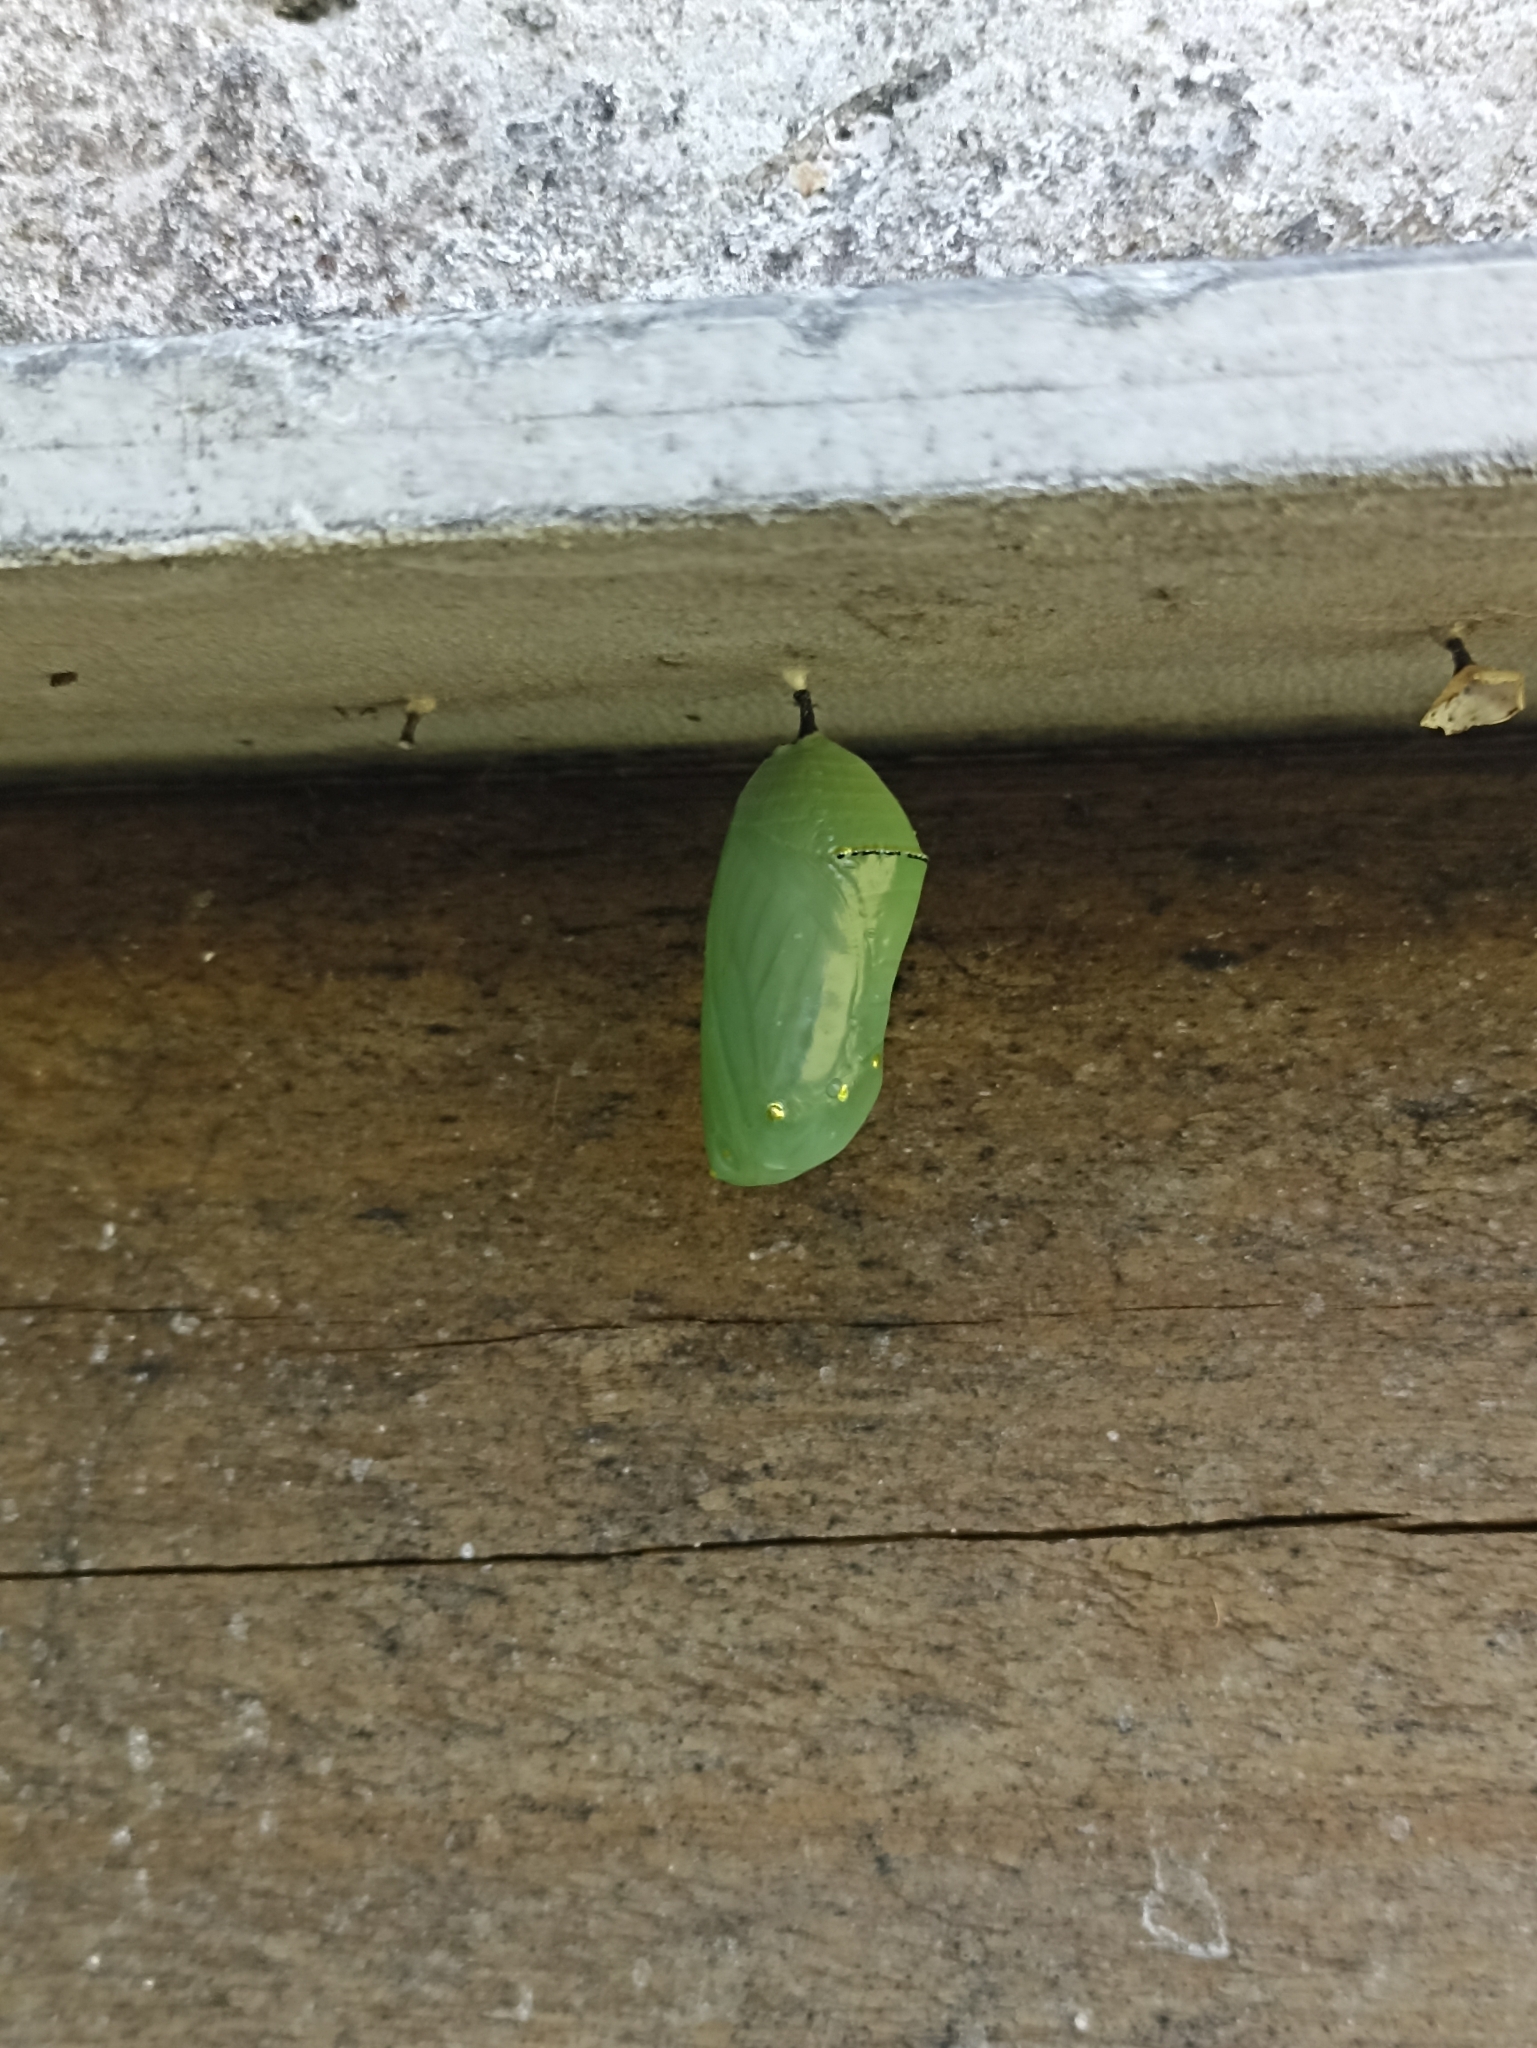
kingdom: Animalia
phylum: Arthropoda
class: Insecta
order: Lepidoptera
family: Nymphalidae
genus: Danaus
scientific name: Danaus plexippus
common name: Monarch
